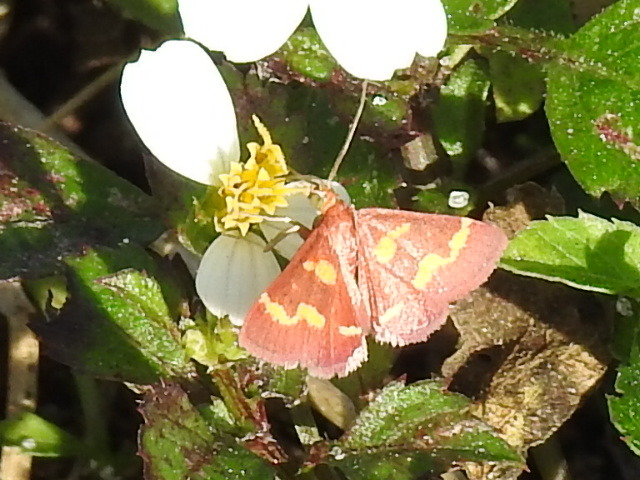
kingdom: Animalia
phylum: Arthropoda
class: Insecta
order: Lepidoptera
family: Crambidae
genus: Pyrausta
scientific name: Pyrausta tyralis
